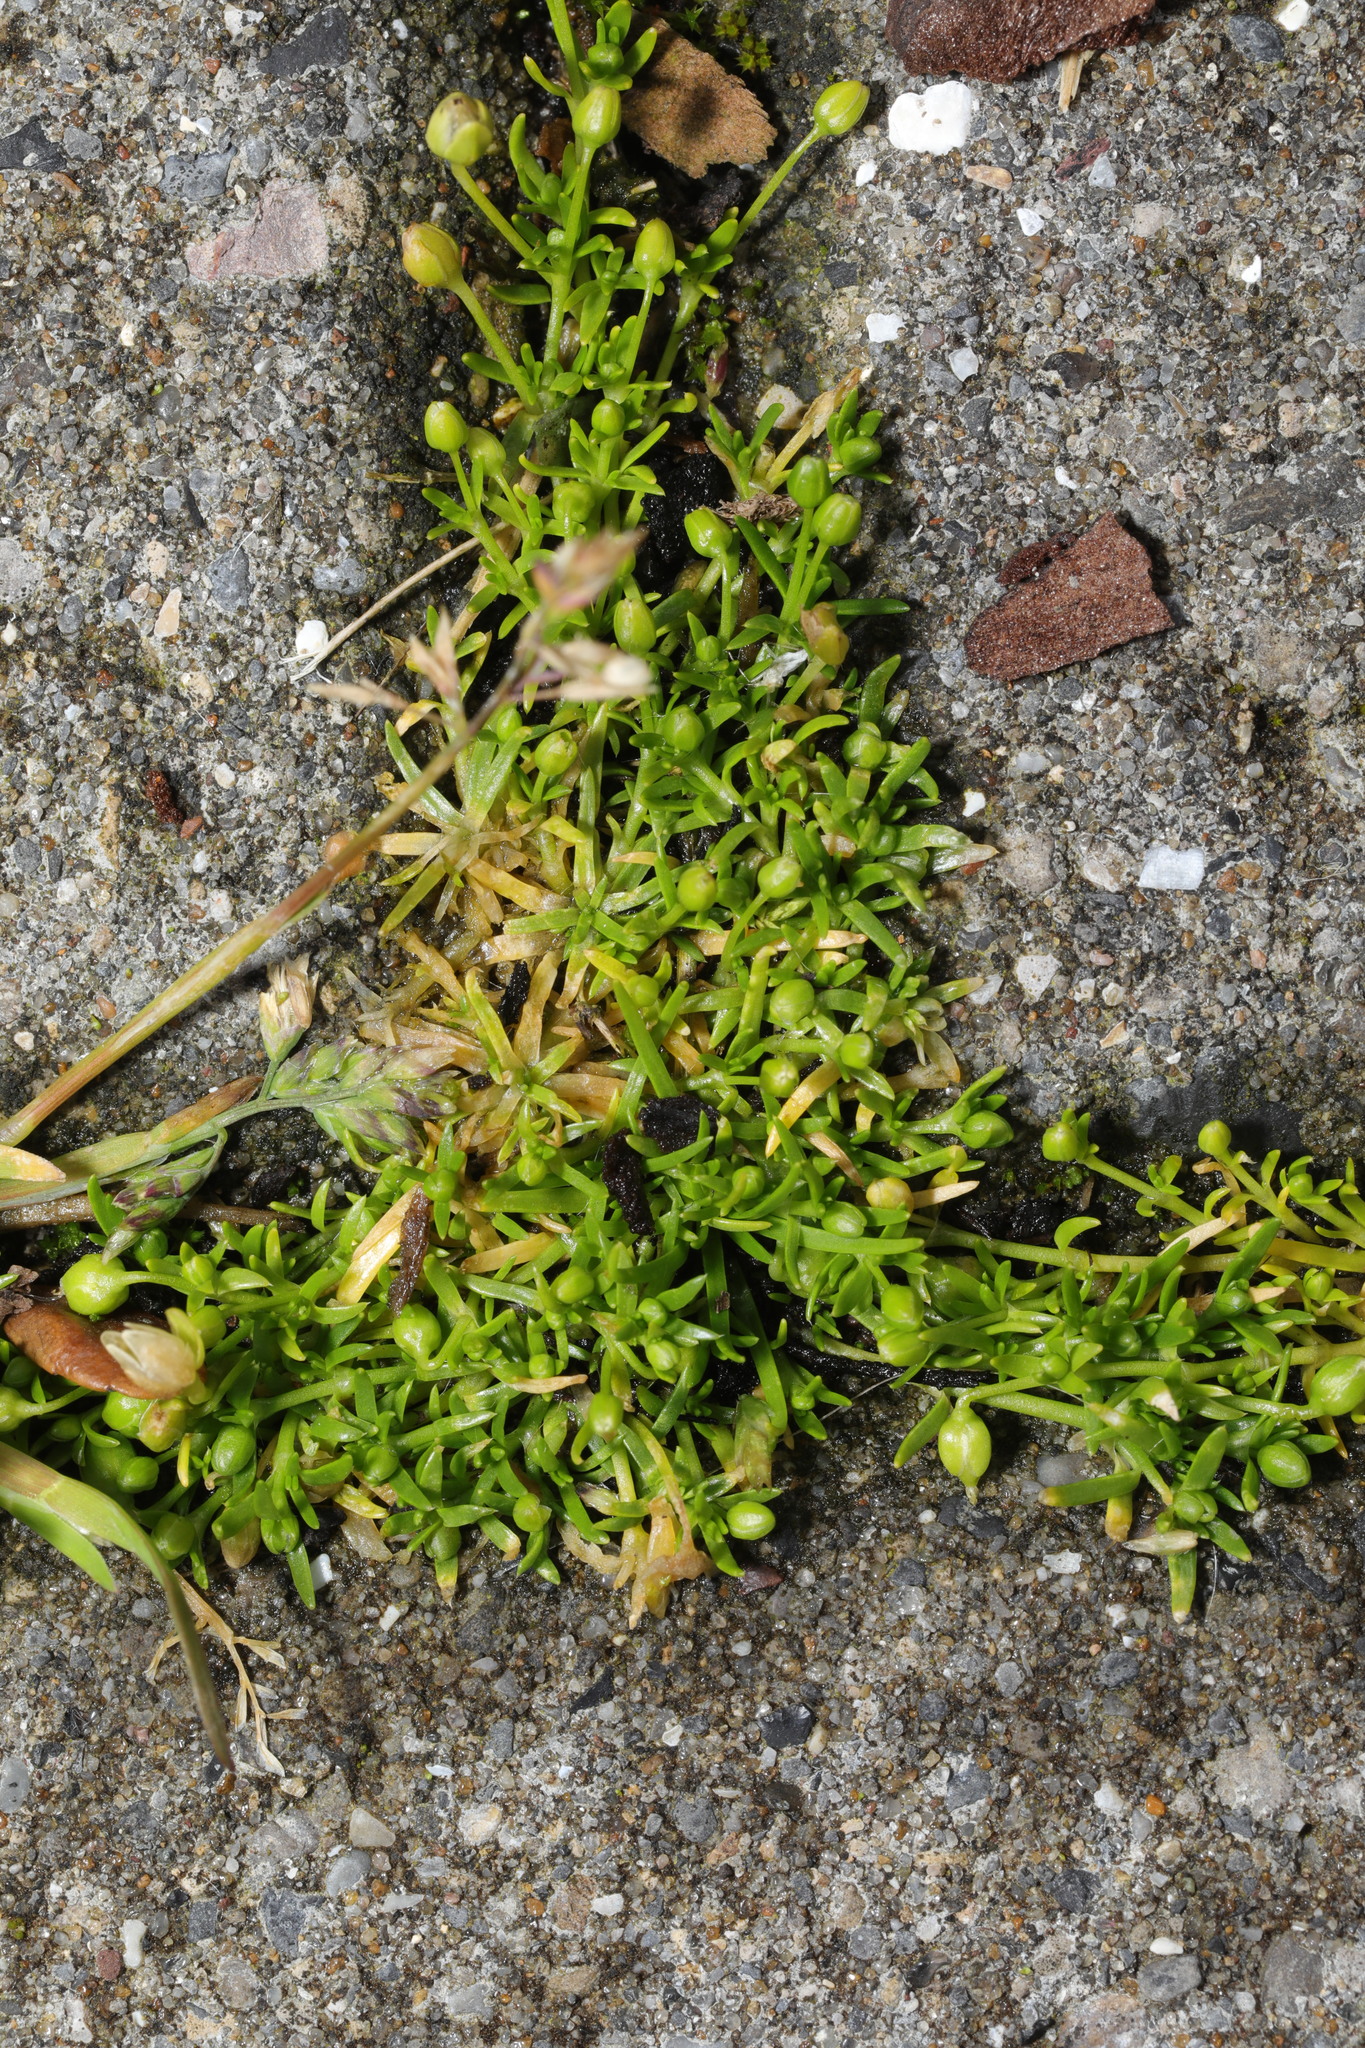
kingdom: Plantae
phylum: Tracheophyta
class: Magnoliopsida
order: Caryophyllales
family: Caryophyllaceae
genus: Sagina
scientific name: Sagina procumbens
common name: Procumbent pearlwort
